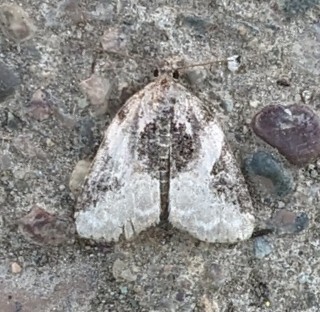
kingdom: Animalia
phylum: Arthropoda
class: Insecta
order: Lepidoptera
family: Noctuidae
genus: Pseudeustrotia
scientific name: Pseudeustrotia carneola
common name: Pink-barred lithacodia moth
